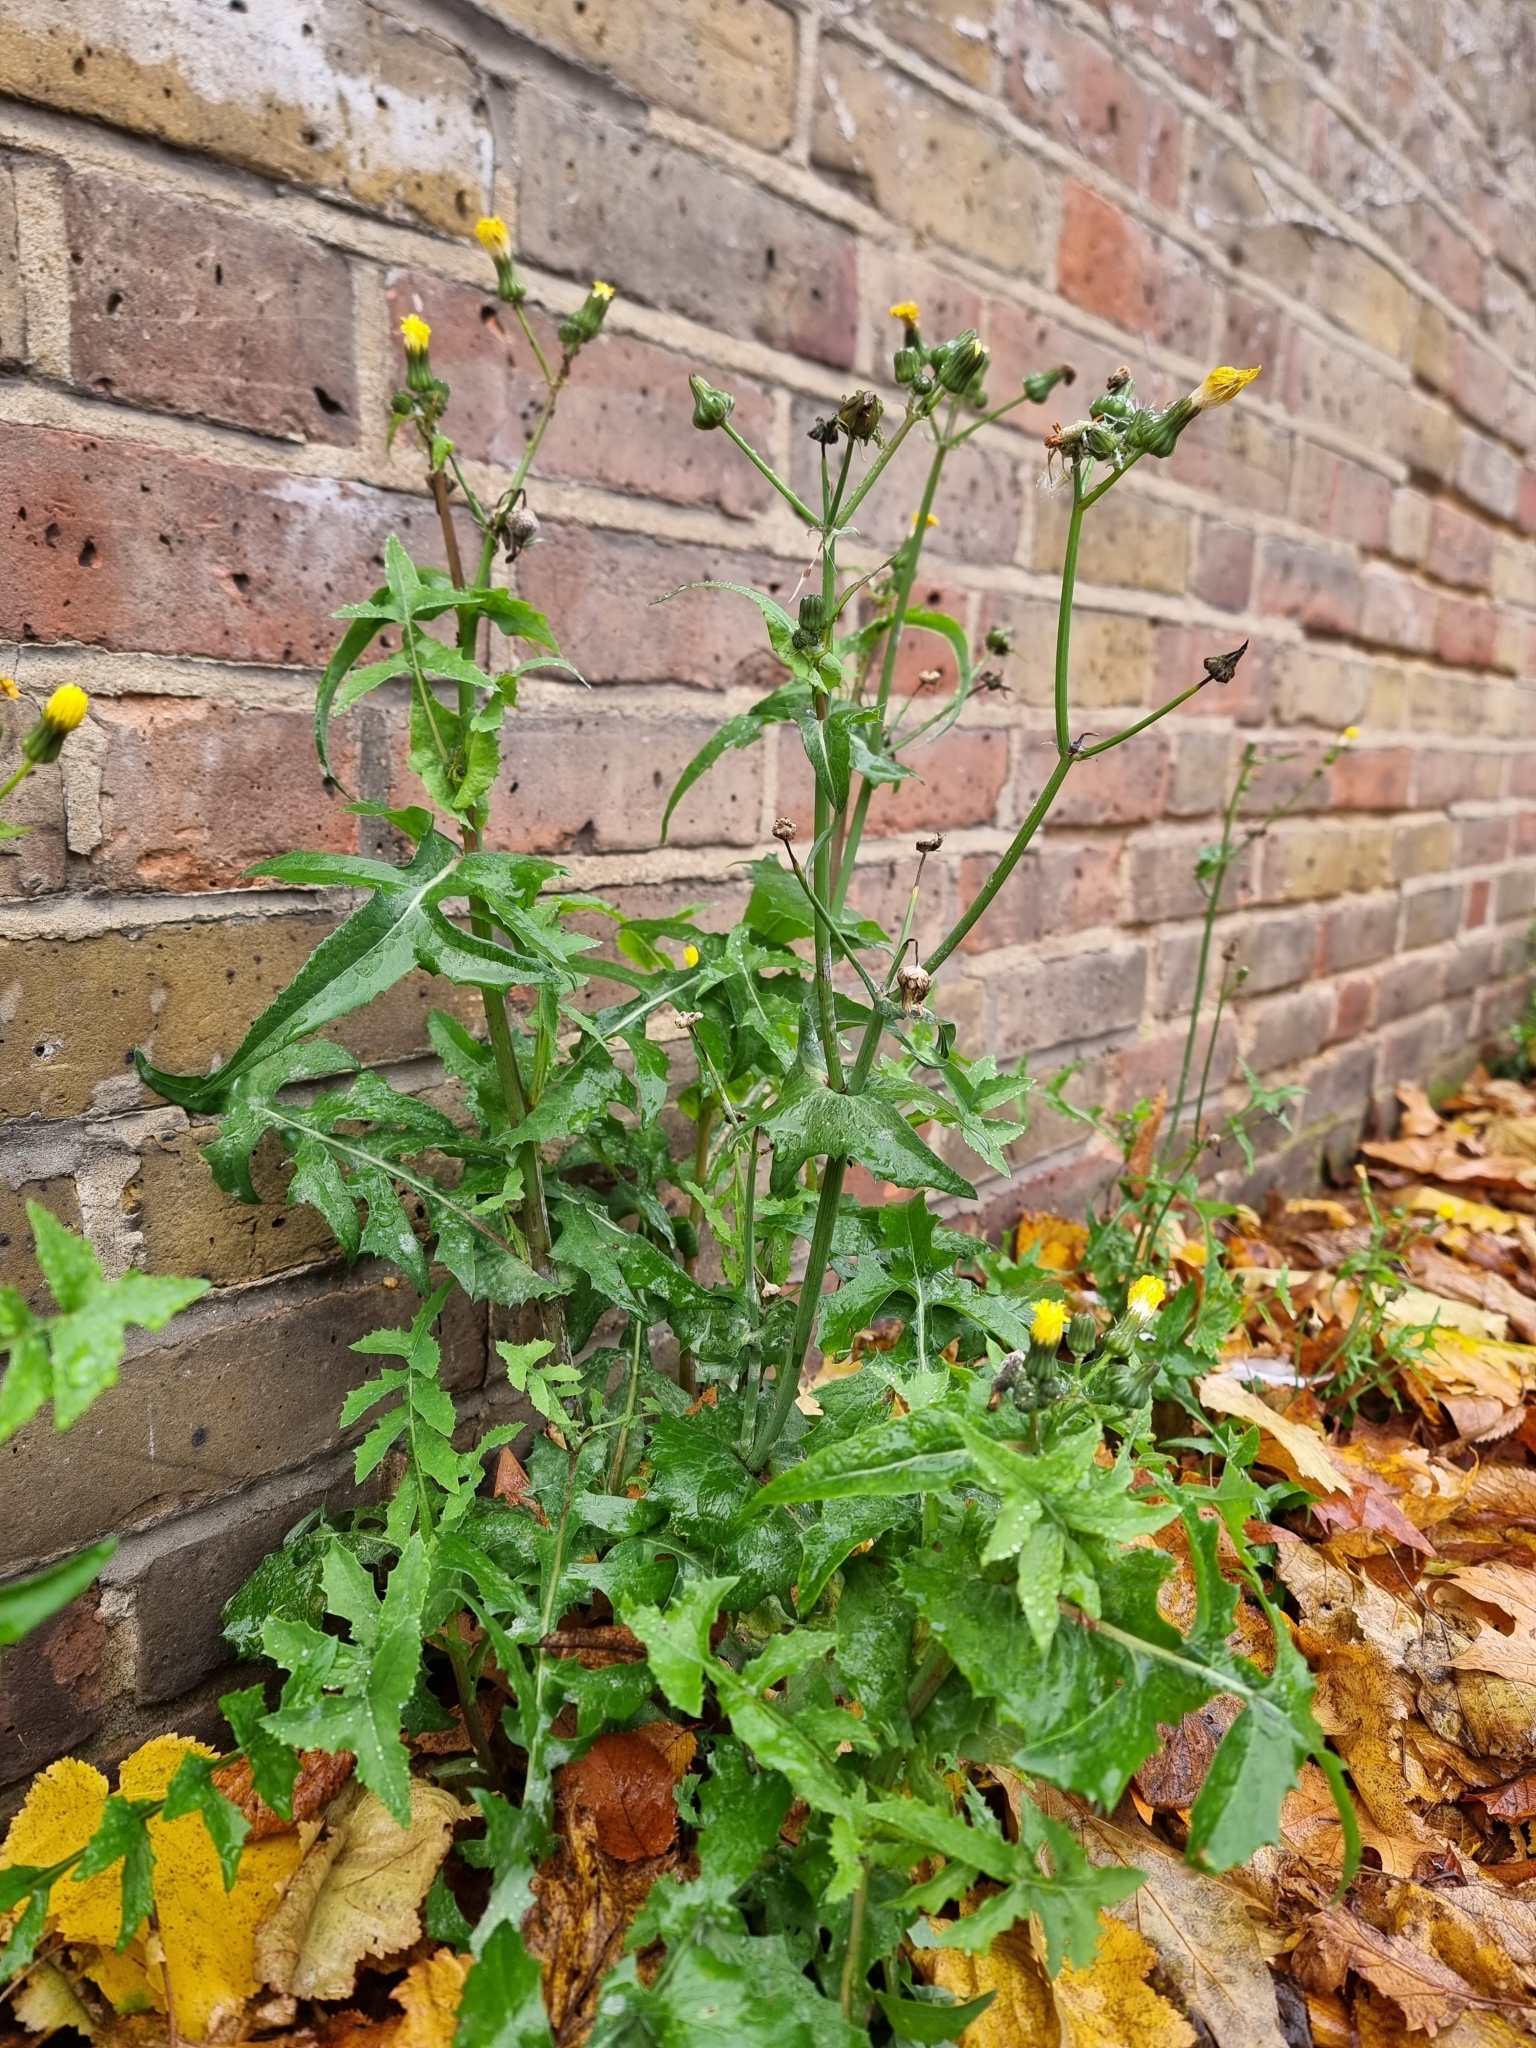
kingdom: Plantae
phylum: Tracheophyta
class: Magnoliopsida
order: Asterales
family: Asteraceae
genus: Sonchus
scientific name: Sonchus oleraceus
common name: Common sowthistle
